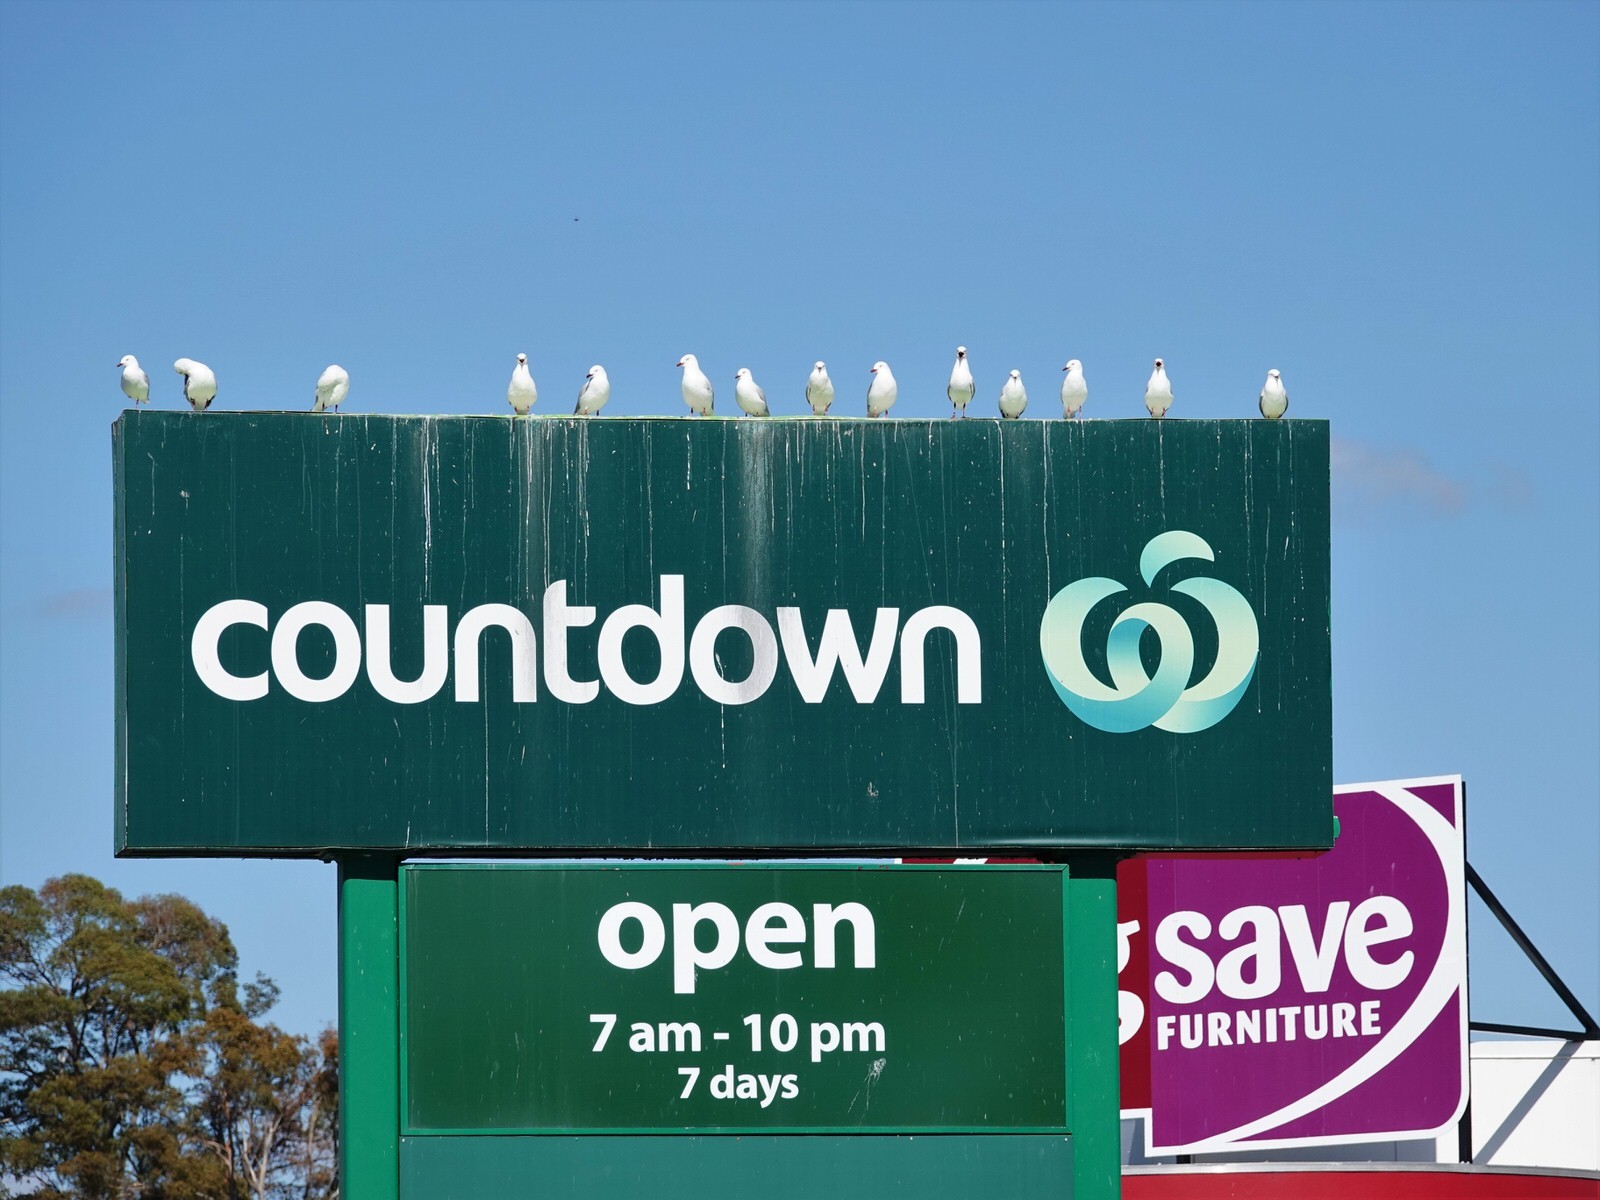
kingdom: Animalia
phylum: Chordata
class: Aves
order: Charadriiformes
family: Laridae
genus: Chroicocephalus
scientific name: Chroicocephalus novaehollandiae
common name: Silver gull
